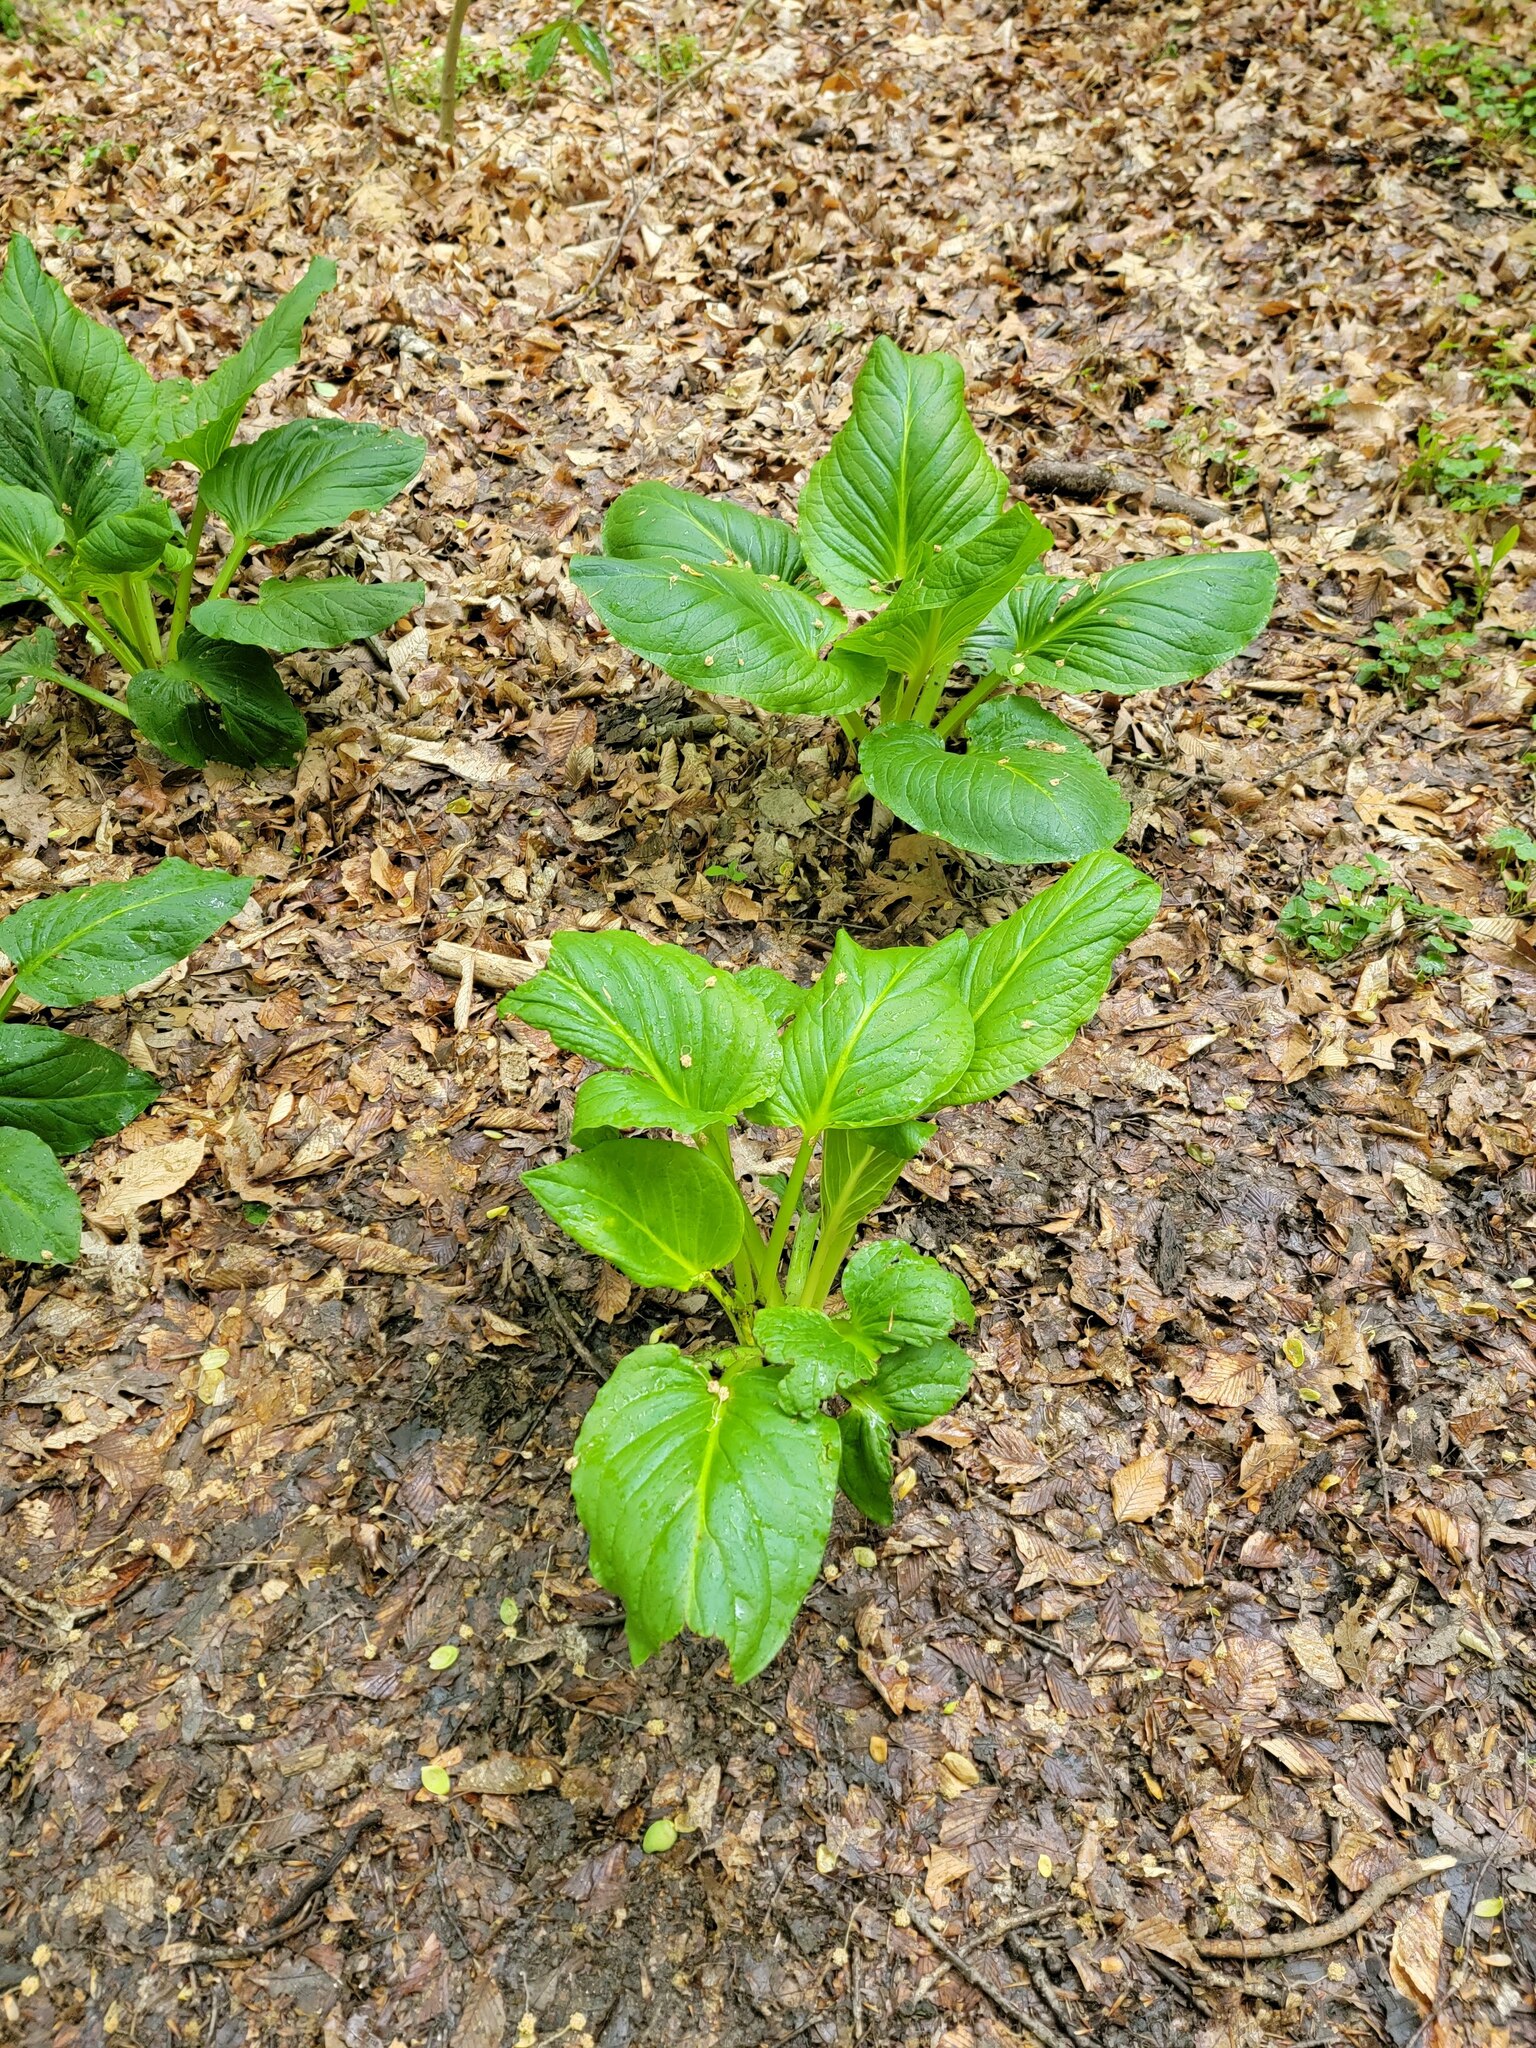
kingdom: Plantae
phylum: Tracheophyta
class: Liliopsida
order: Alismatales
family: Araceae
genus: Symplocarpus
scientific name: Symplocarpus foetidus
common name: Eastern skunk cabbage
